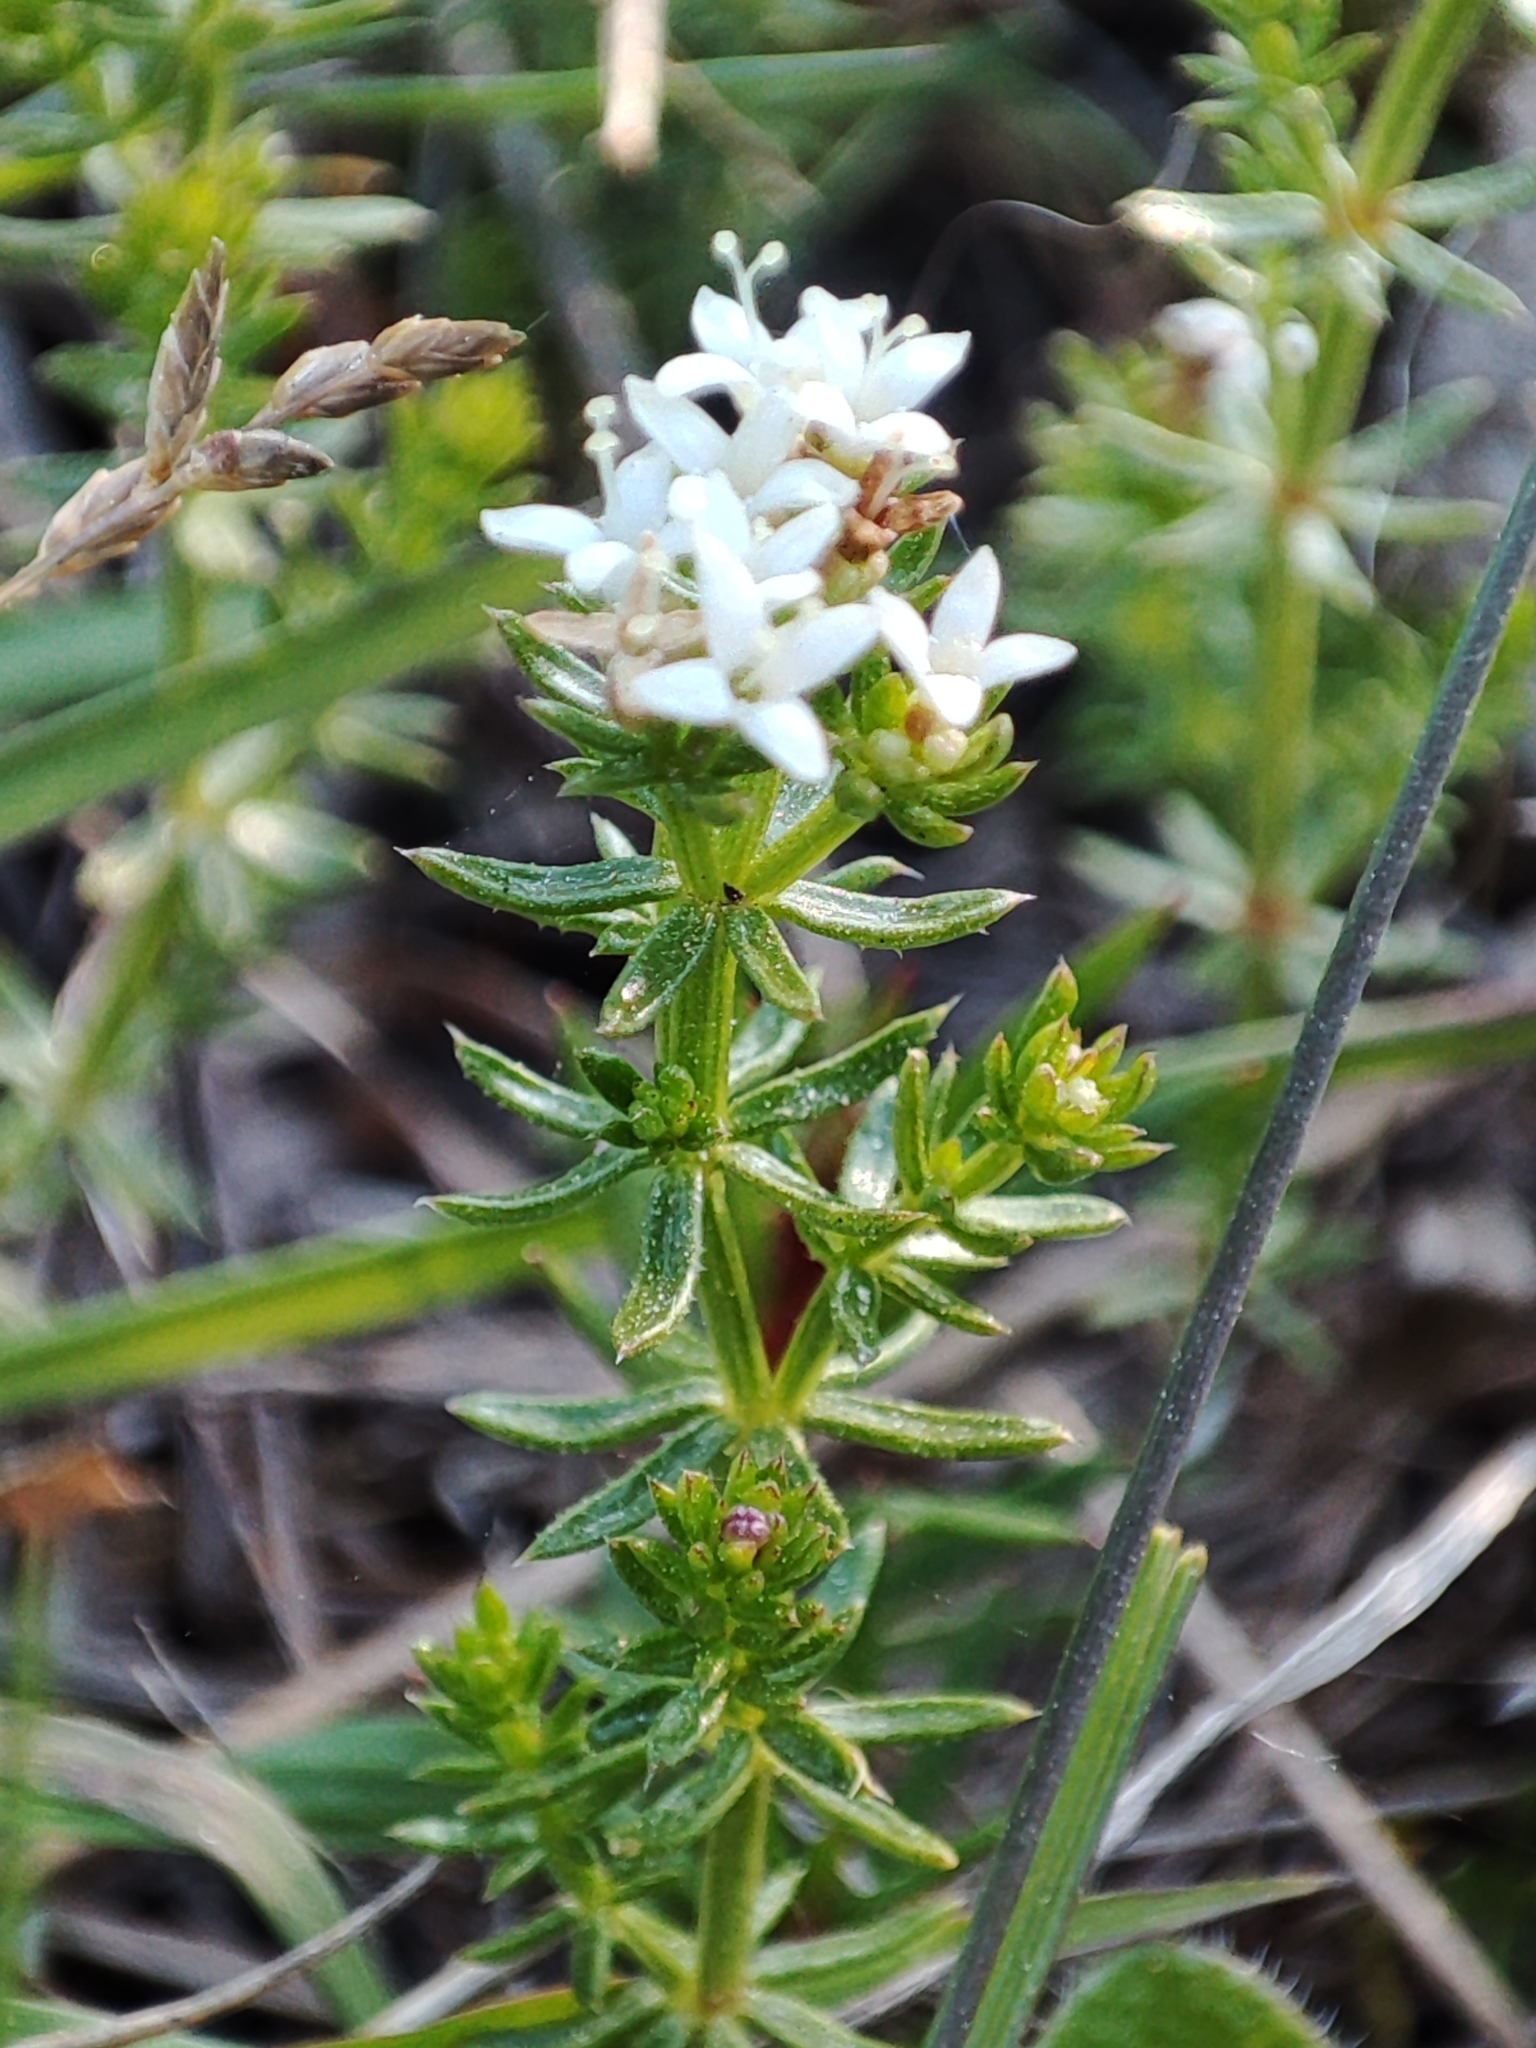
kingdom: Plantae
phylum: Tracheophyta
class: Magnoliopsida
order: Gentianales
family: Rubiaceae
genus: Asperula
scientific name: Asperula conferta
